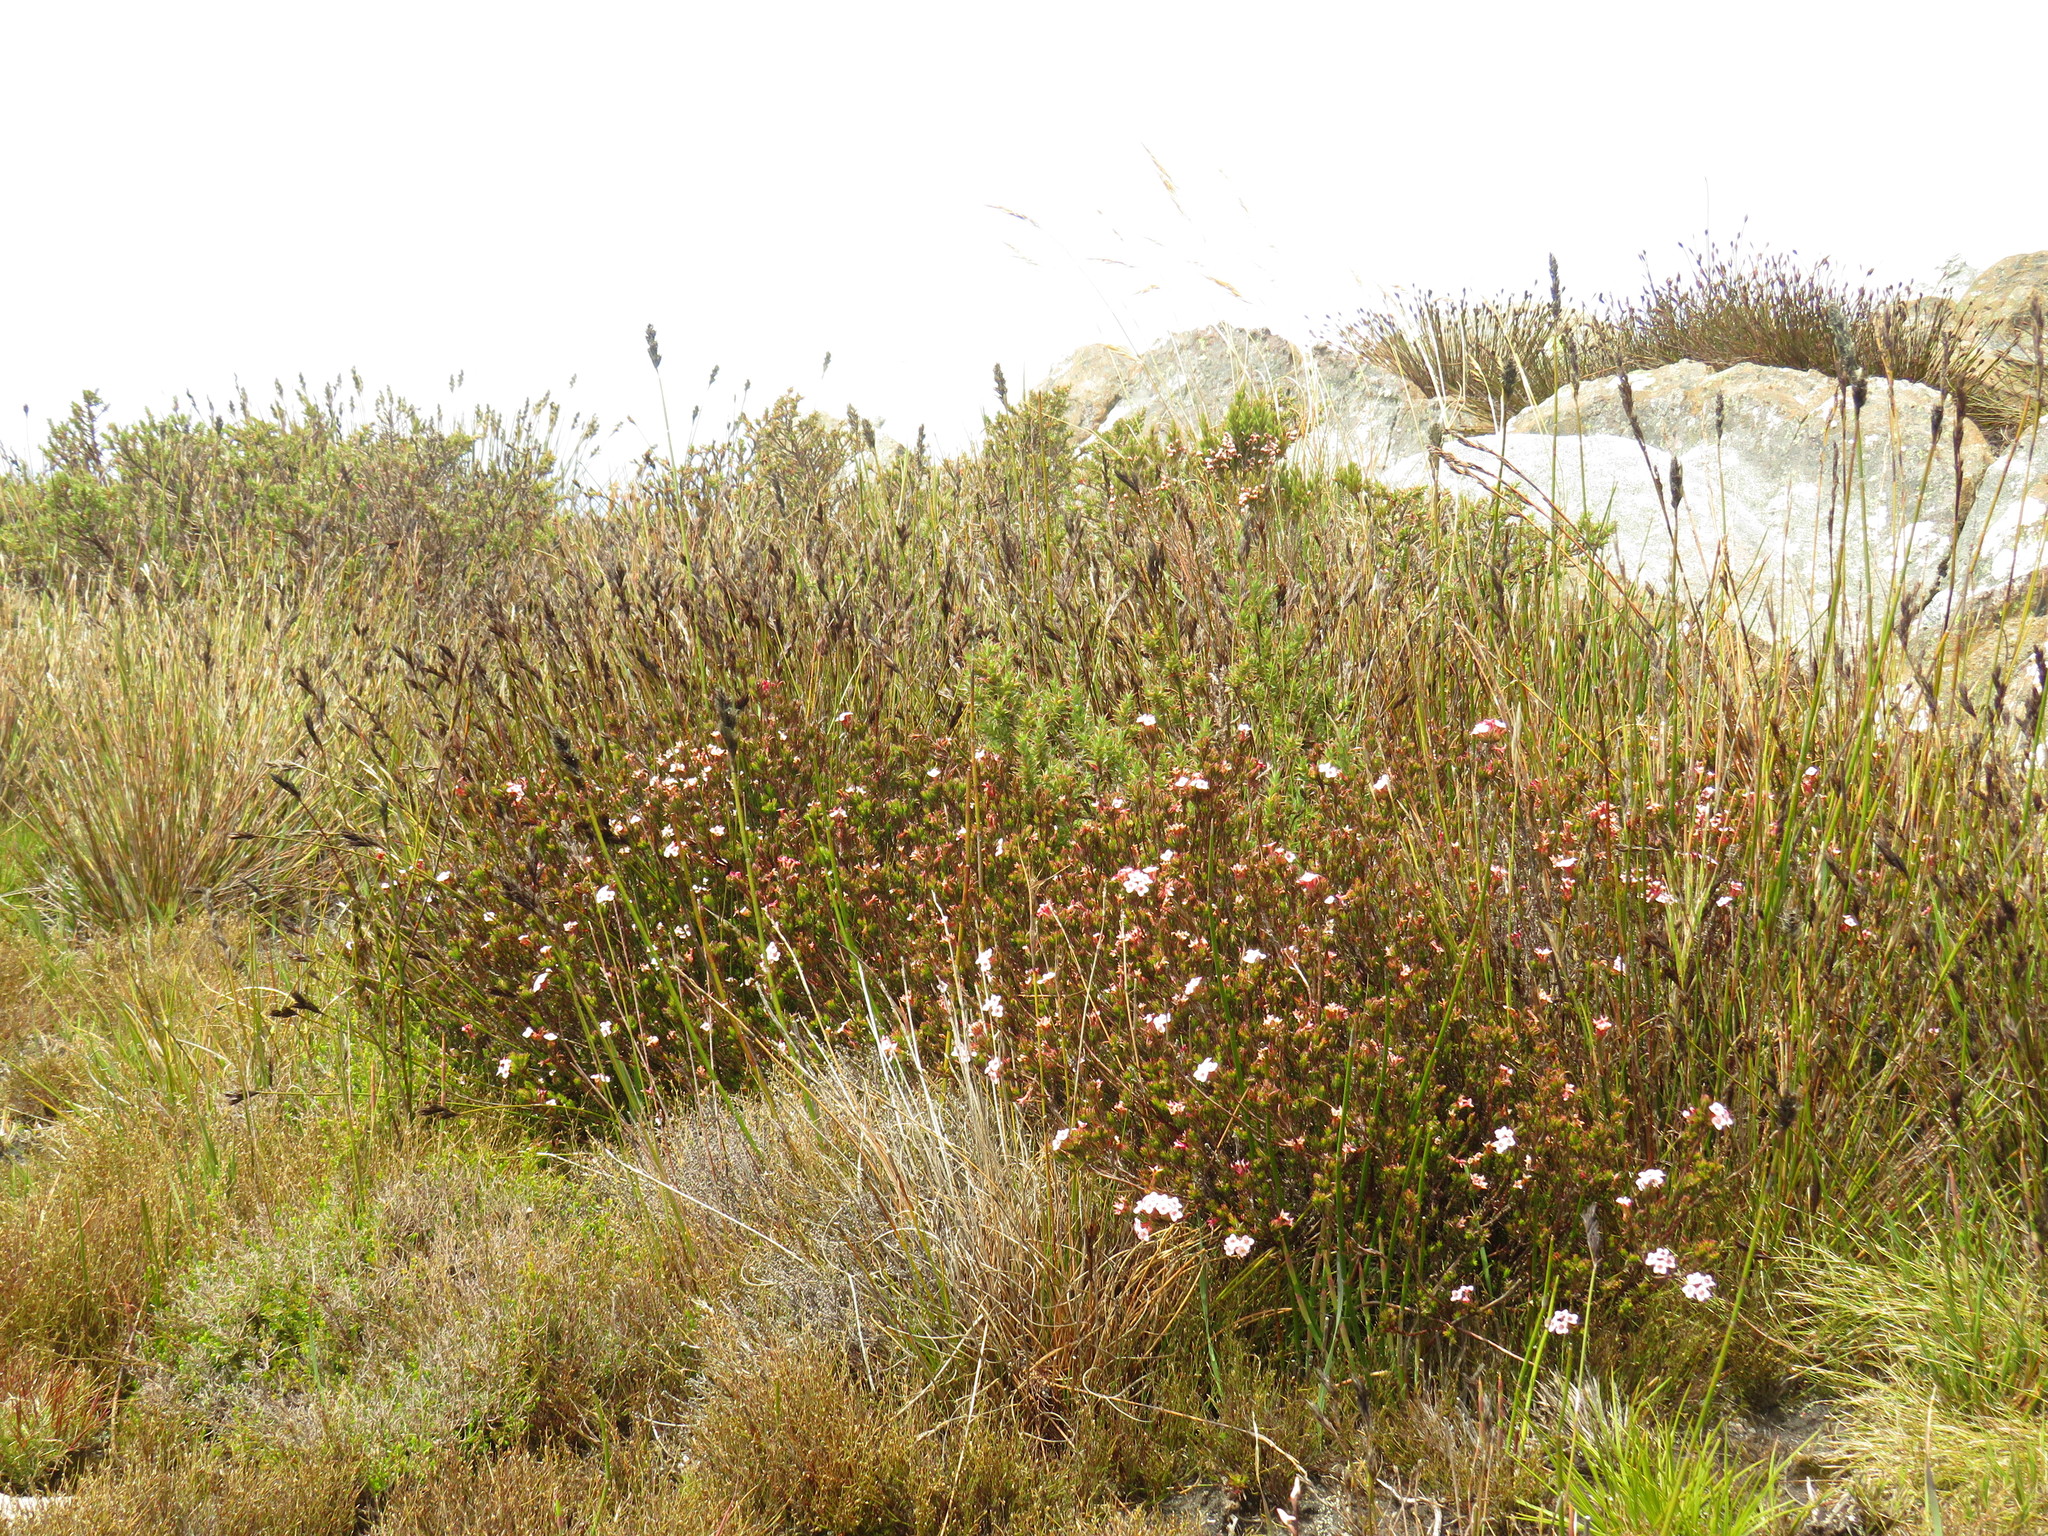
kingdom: Plantae
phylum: Tracheophyta
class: Magnoliopsida
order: Ericales
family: Ericaceae
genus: Erica
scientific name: Erica fastigiata
